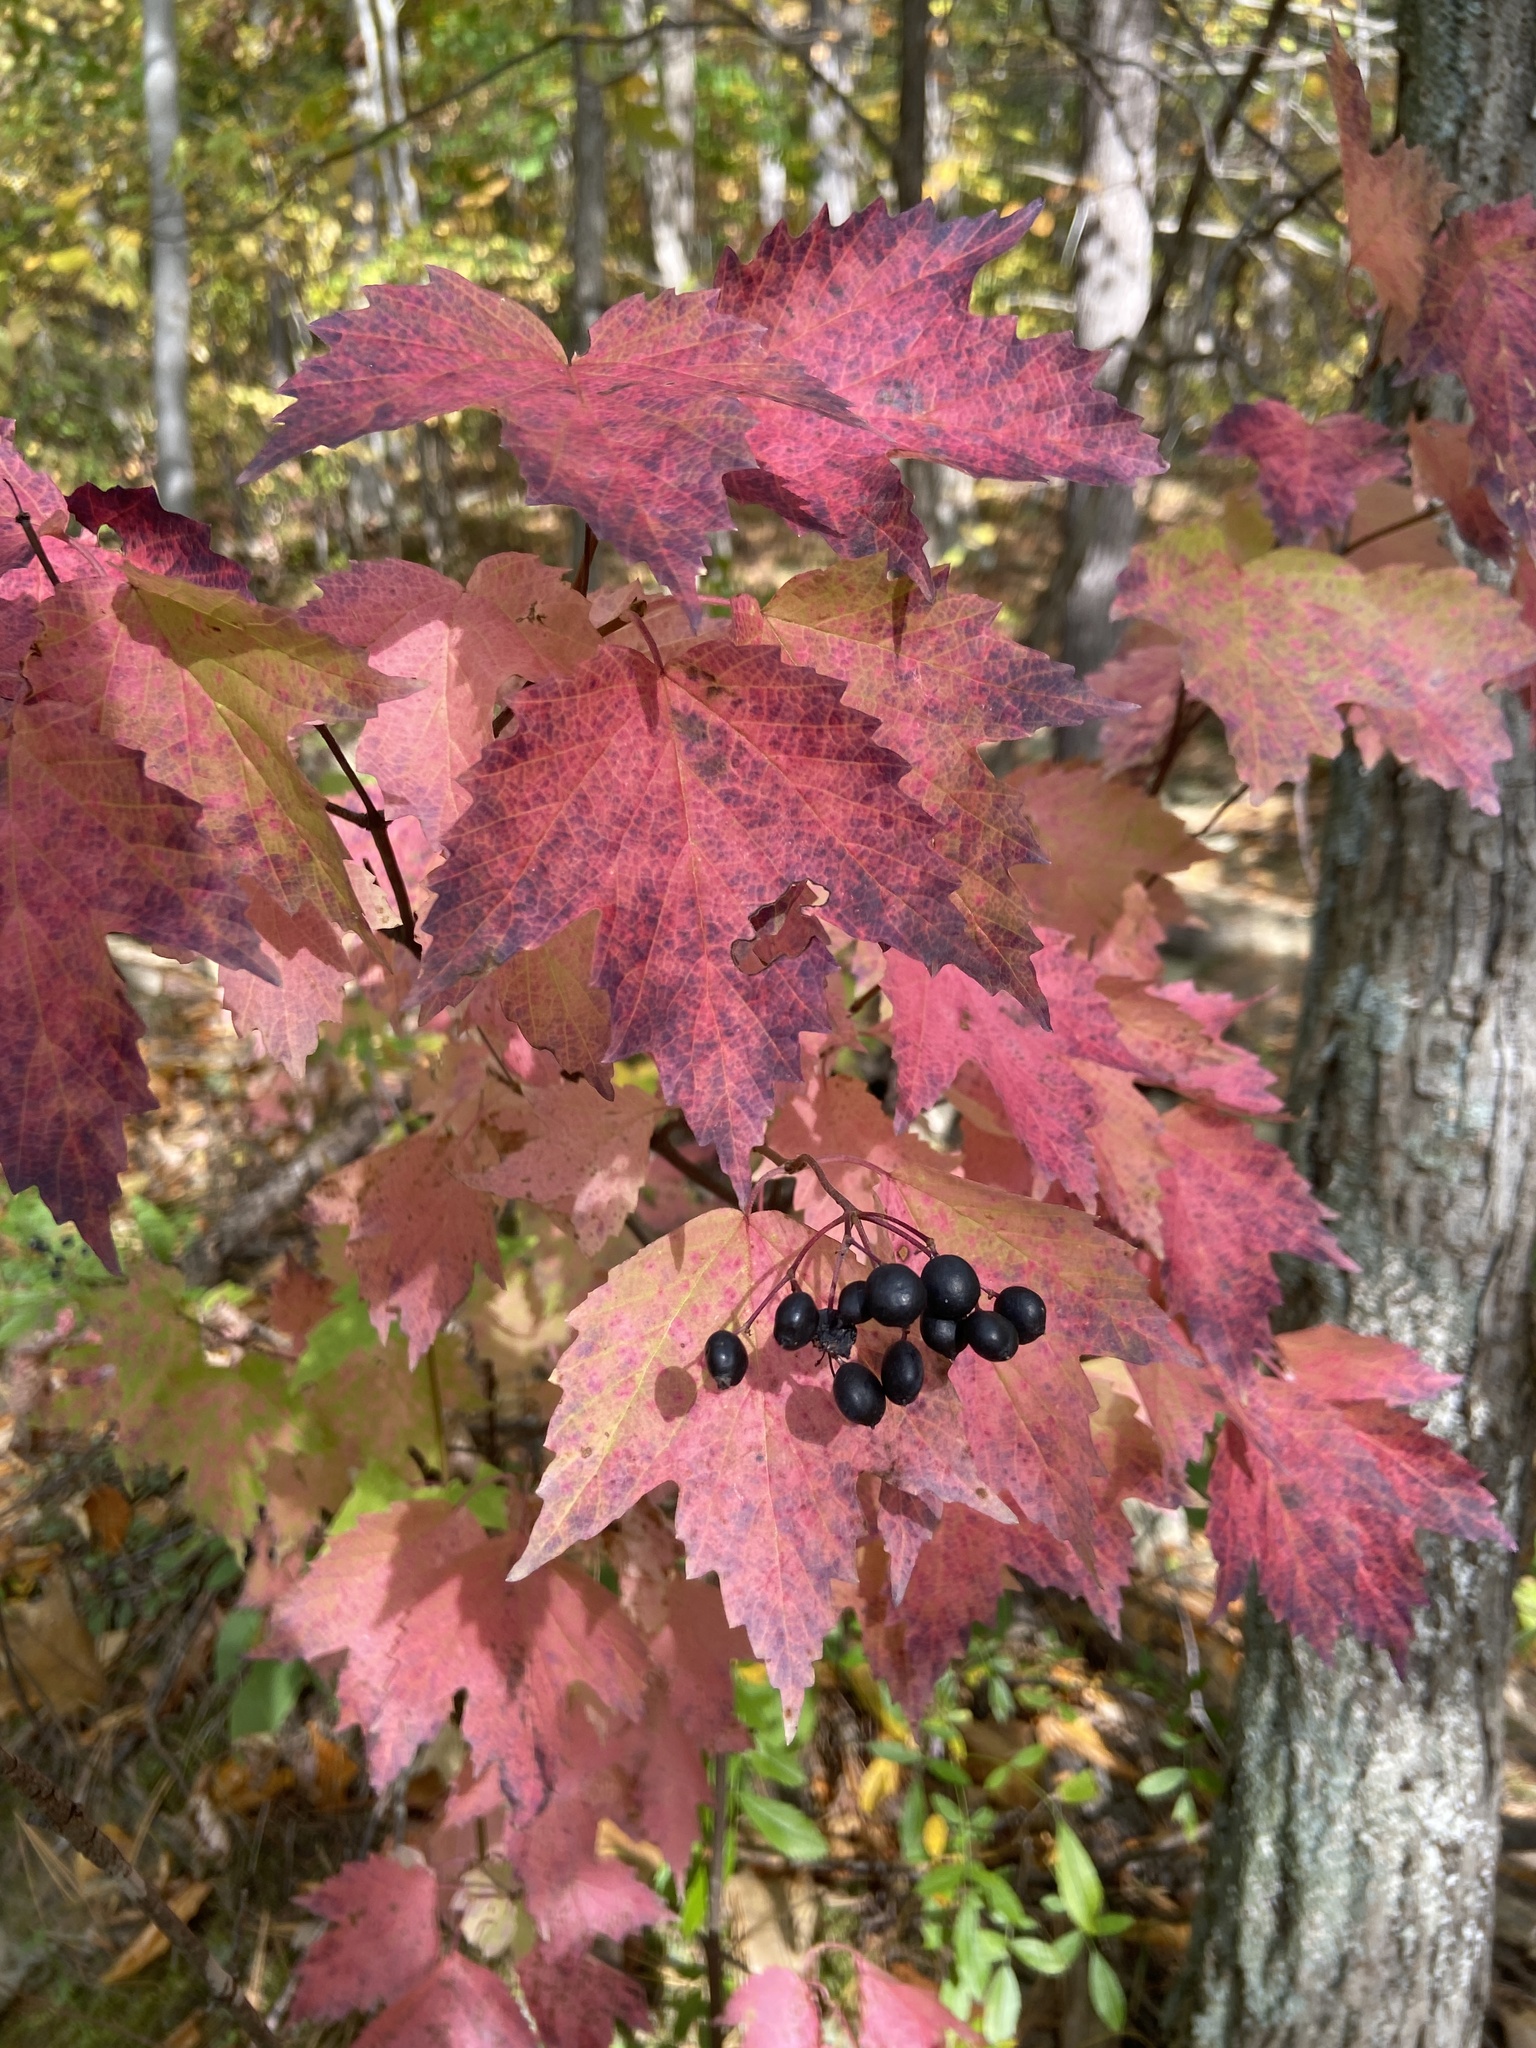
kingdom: Plantae
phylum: Tracheophyta
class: Magnoliopsida
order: Dipsacales
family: Viburnaceae
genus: Viburnum
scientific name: Viburnum acerifolium
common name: Dockmackie
